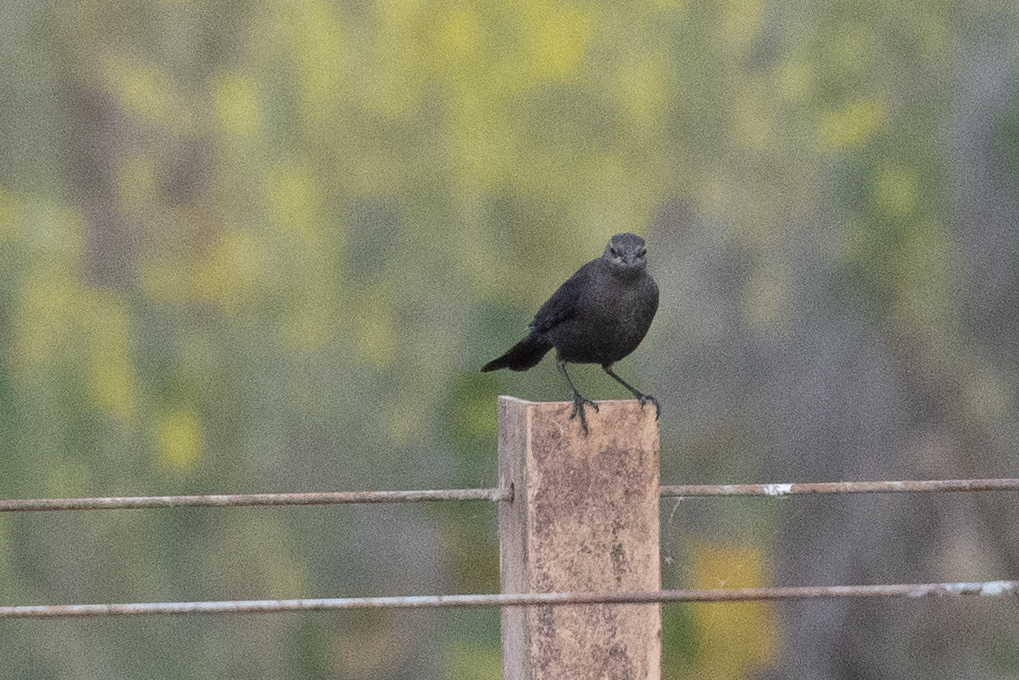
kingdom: Animalia
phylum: Chordata
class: Aves
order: Passeriformes
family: Icteridae
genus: Euphagus
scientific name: Euphagus cyanocephalus
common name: Brewer's blackbird
